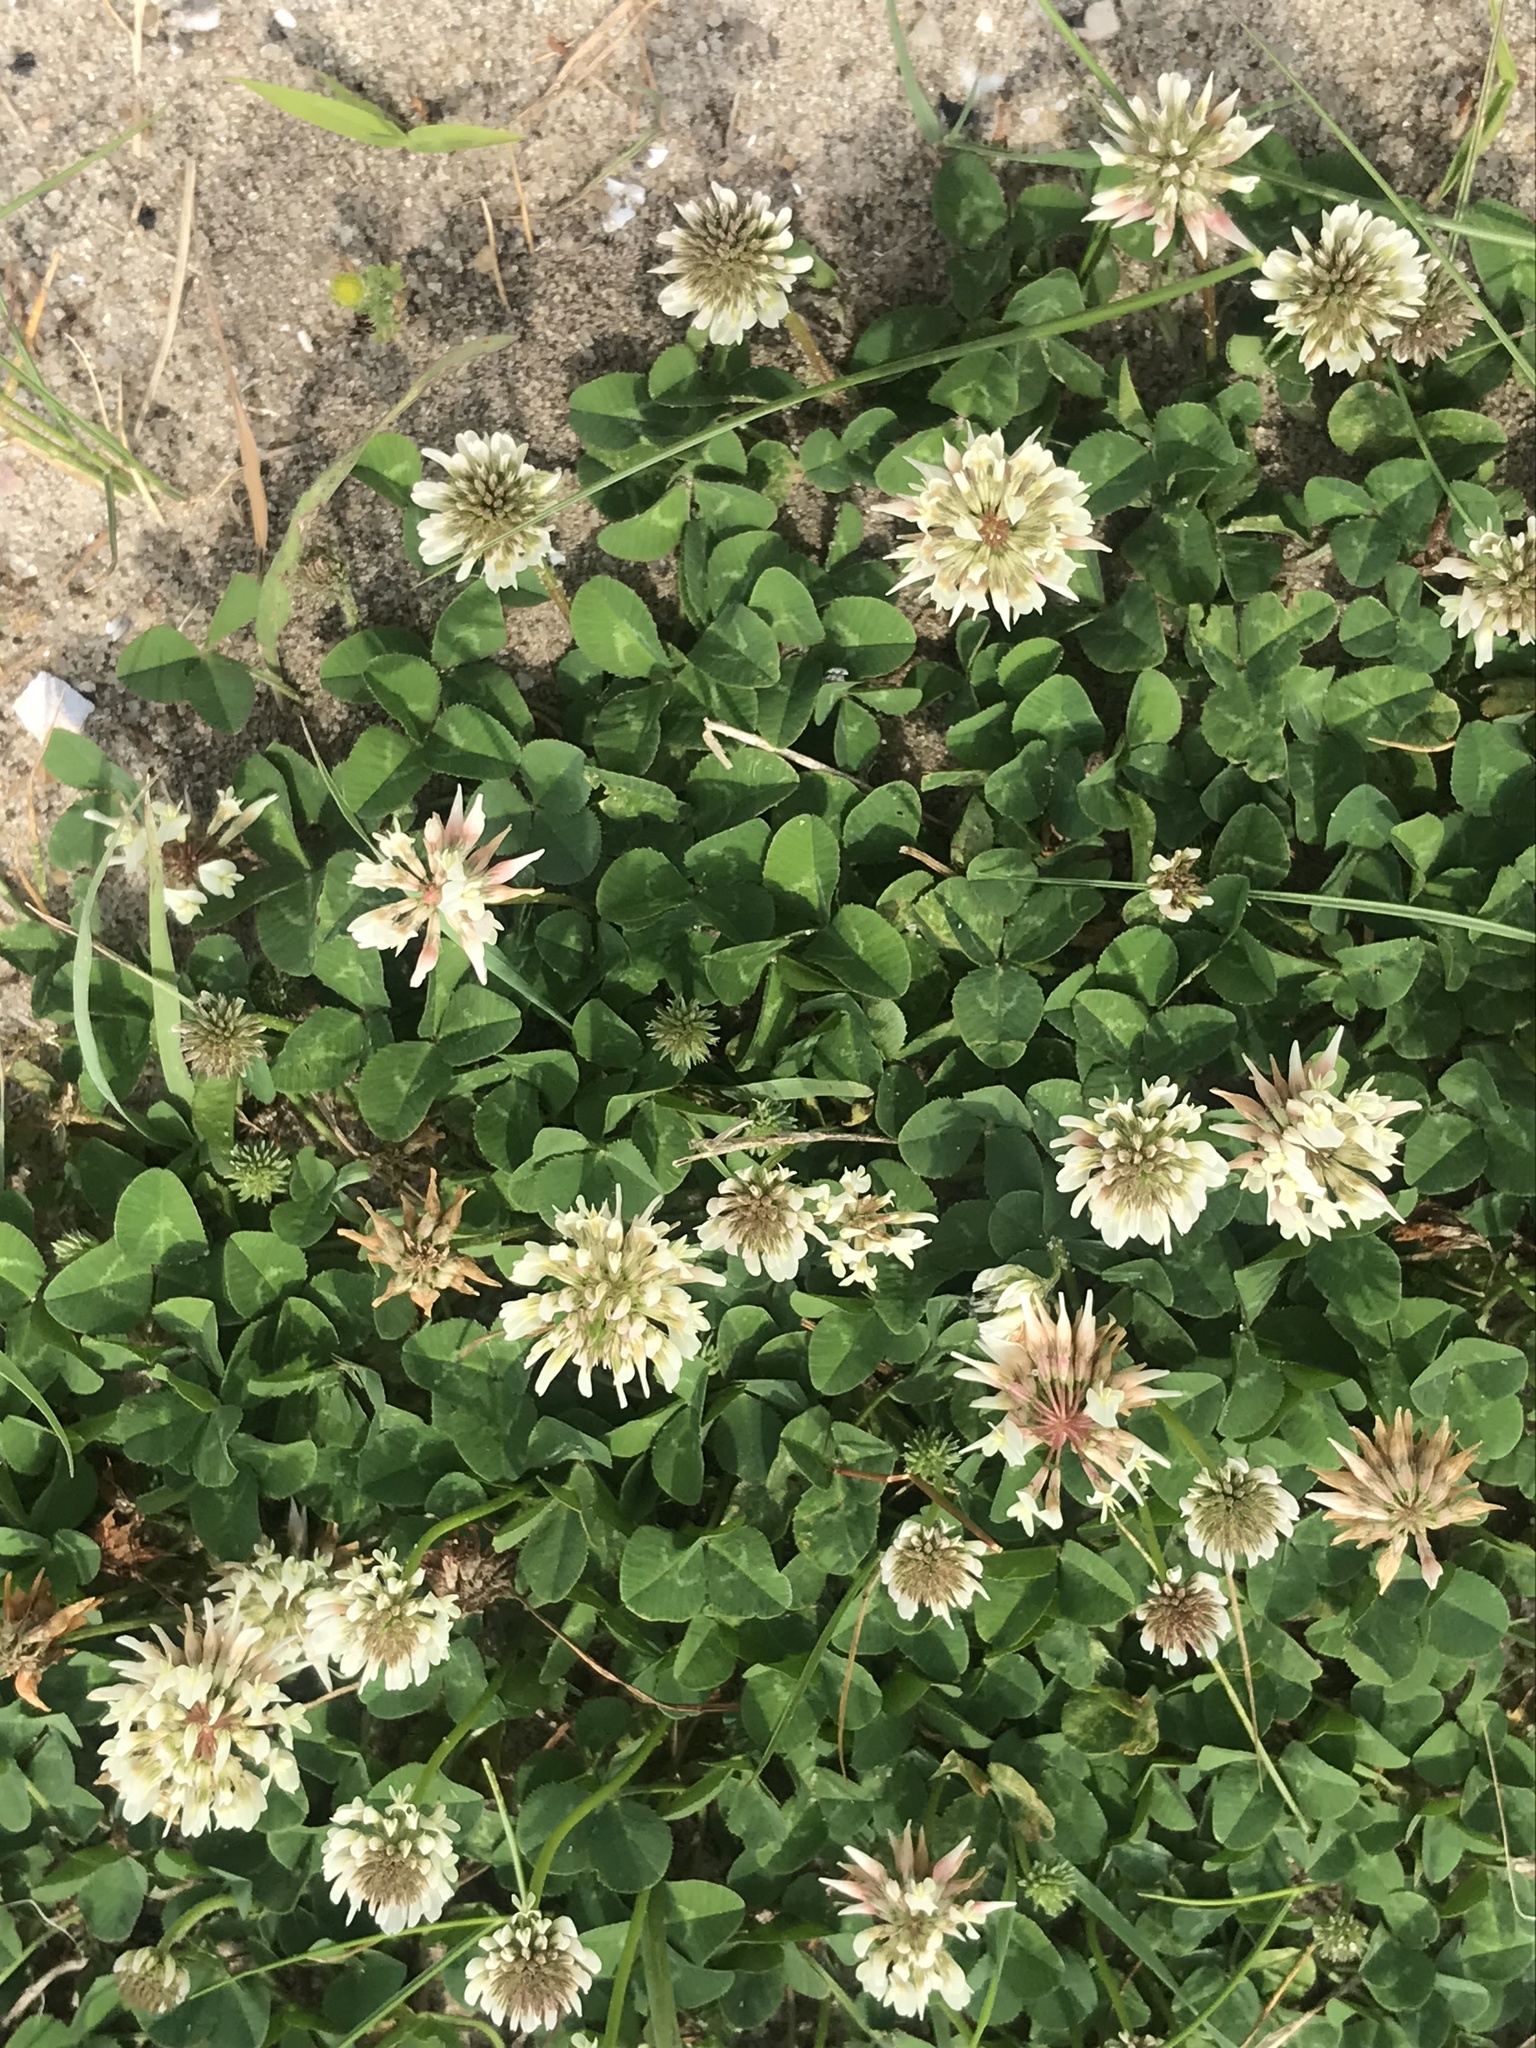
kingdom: Plantae
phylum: Tracheophyta
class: Magnoliopsida
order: Fabales
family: Fabaceae
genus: Trifolium
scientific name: Trifolium repens
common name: White clover
